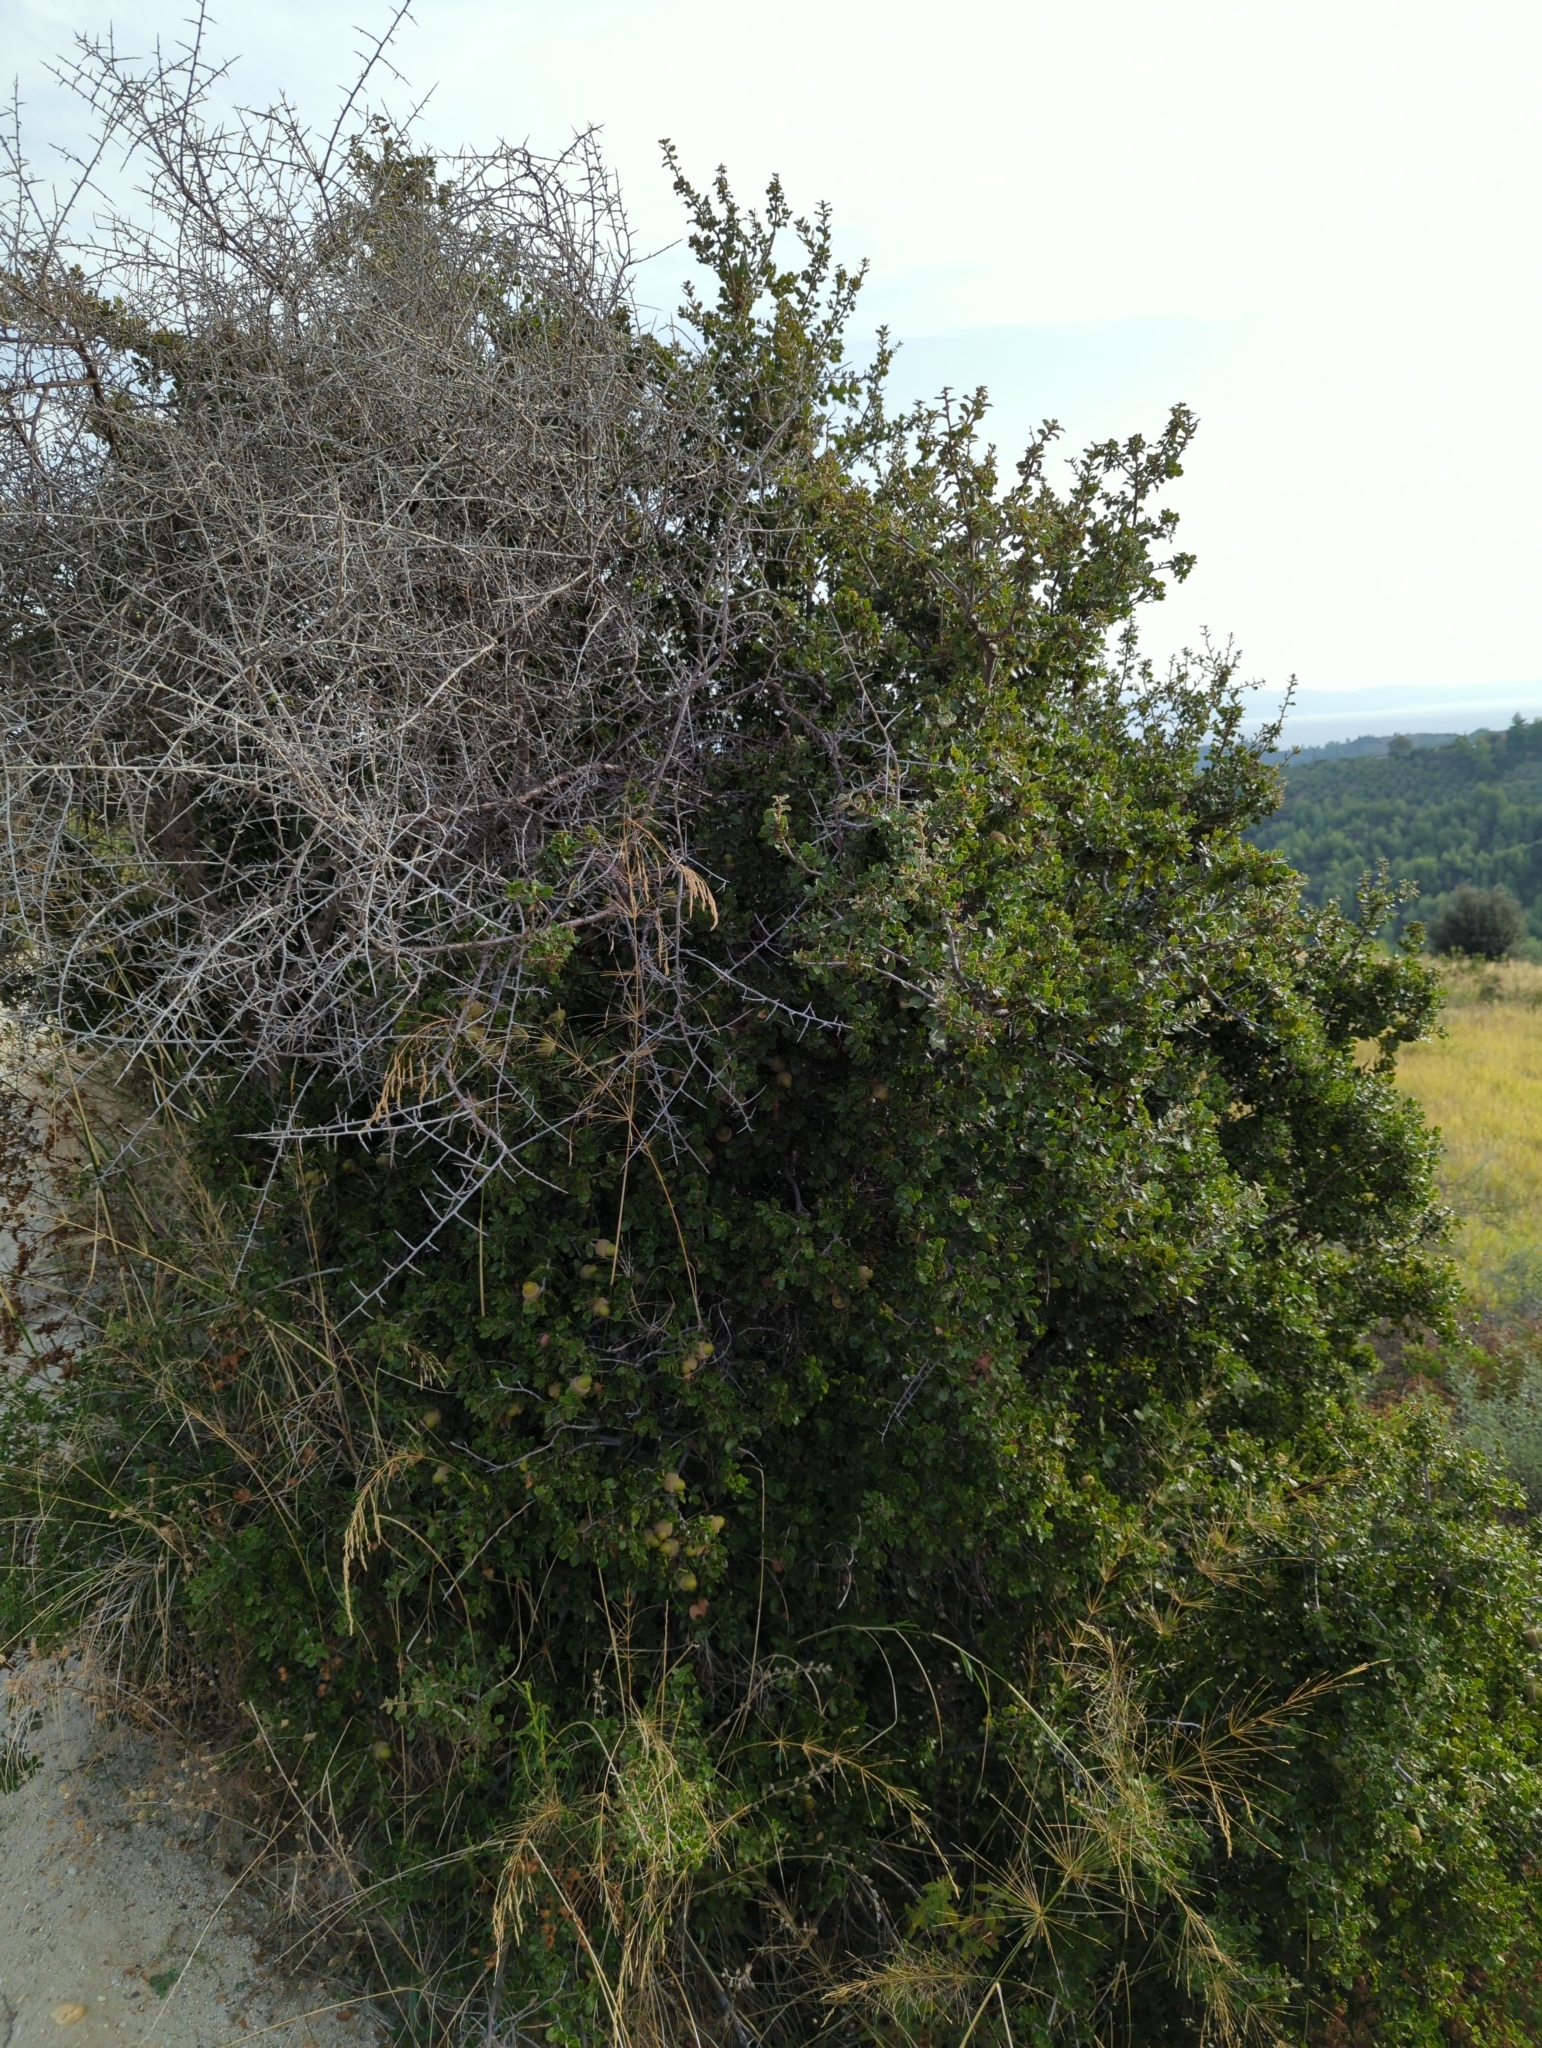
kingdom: Plantae
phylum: Tracheophyta
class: Magnoliopsida
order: Fagales
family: Fagaceae
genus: Quercus
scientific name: Quercus coccifera
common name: Kermes oak
